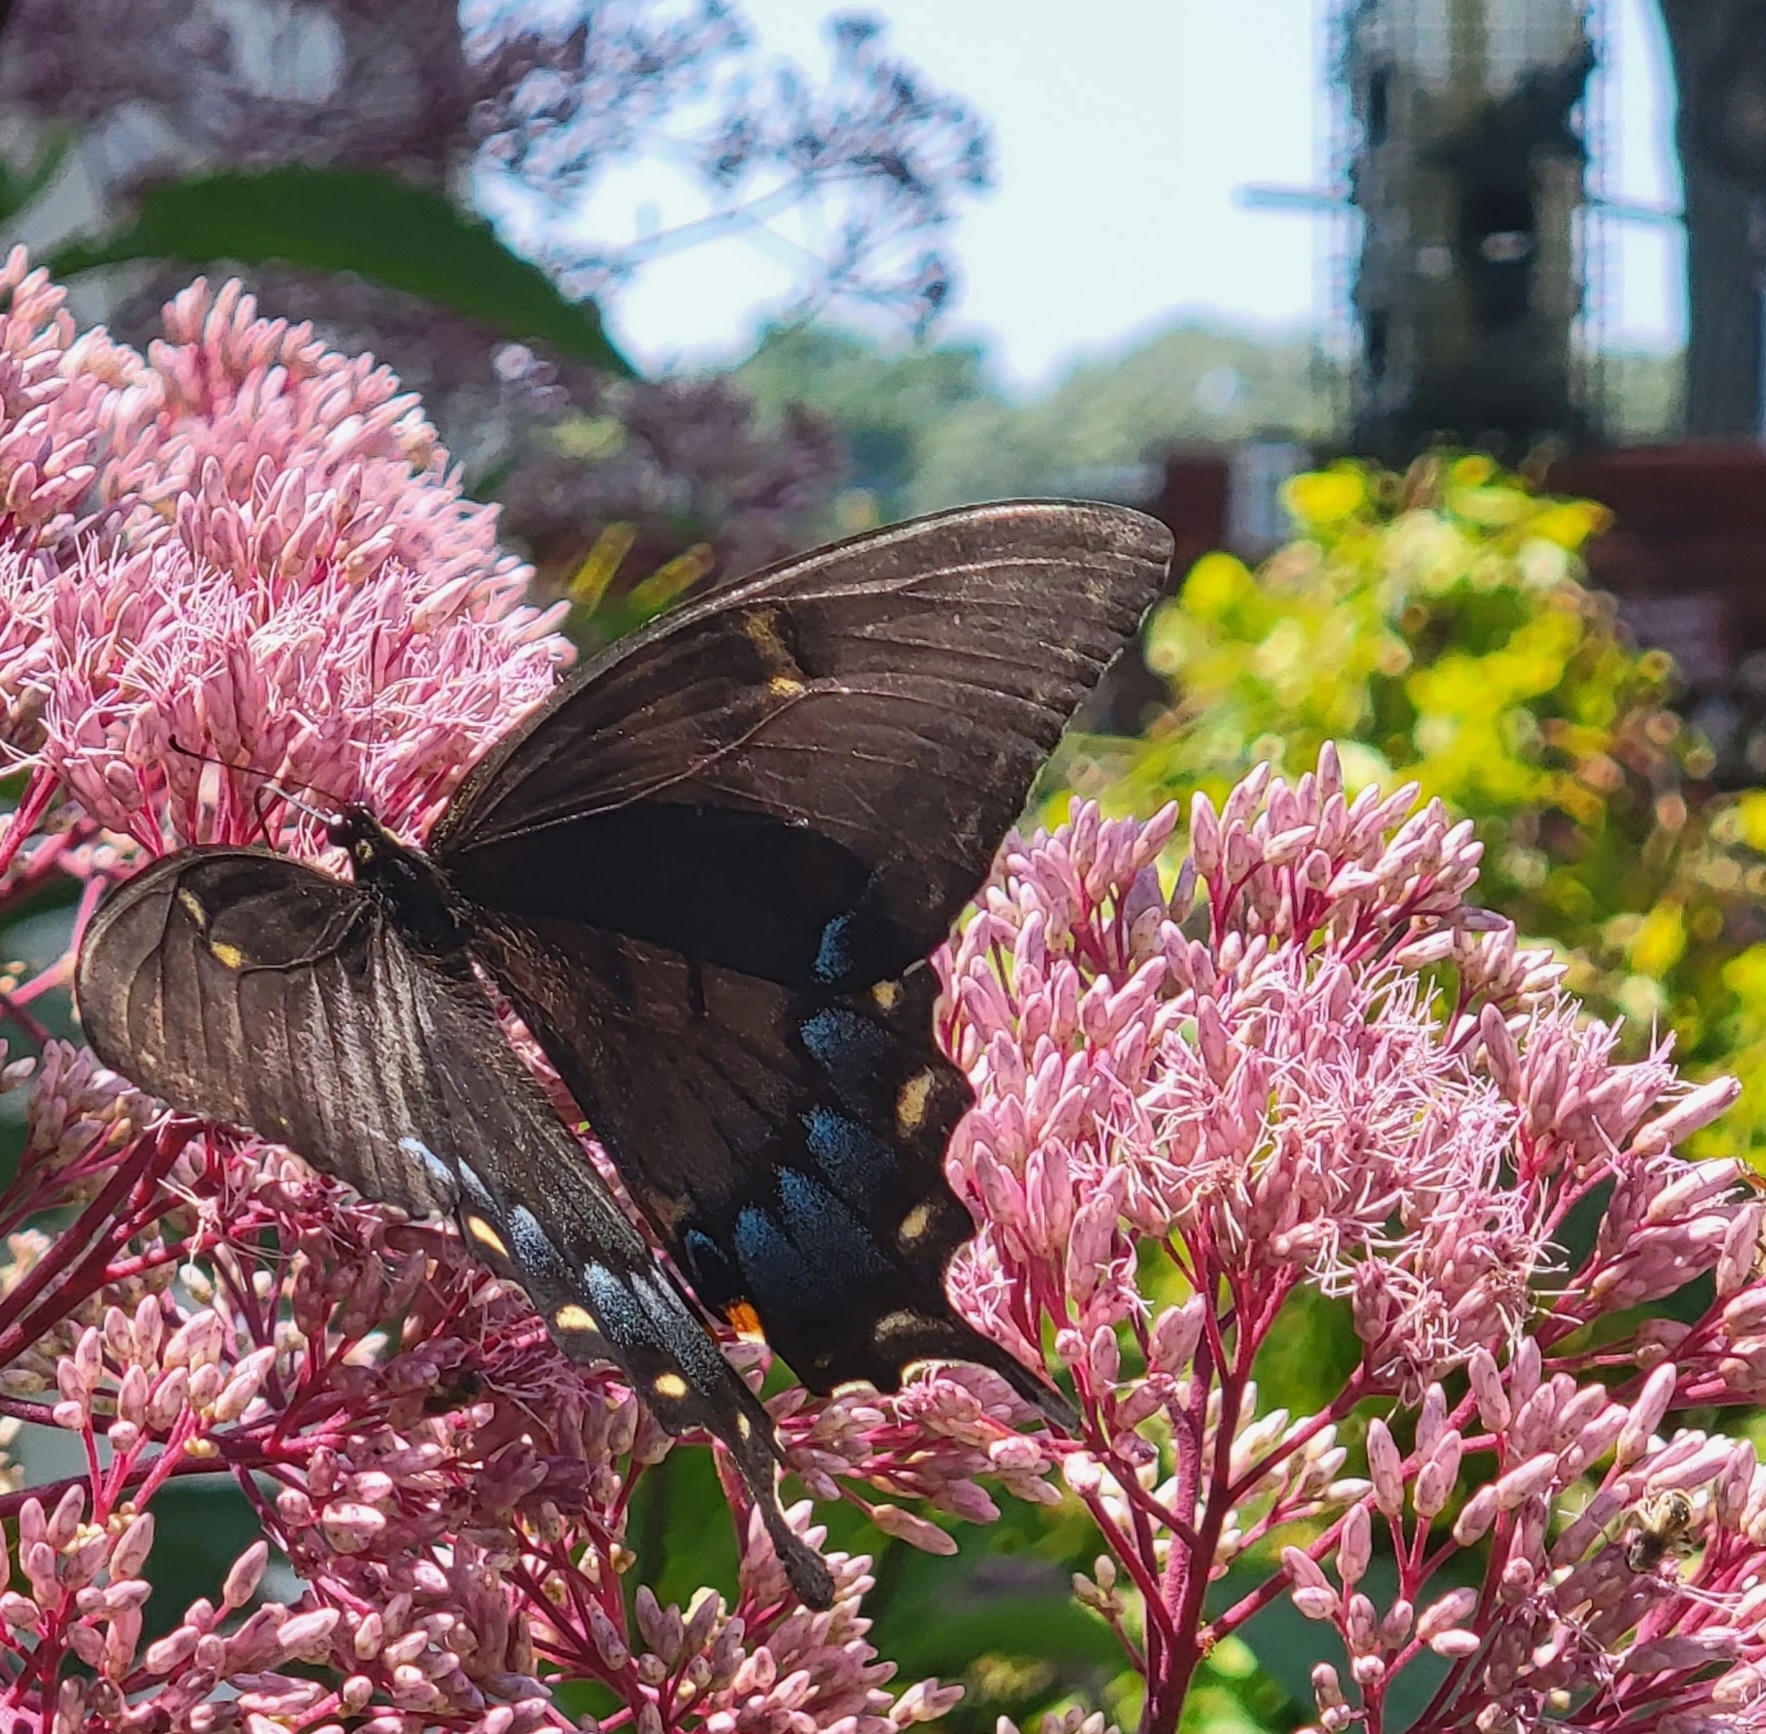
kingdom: Animalia
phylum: Arthropoda
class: Insecta
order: Lepidoptera
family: Papilionidae
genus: Papilio
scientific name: Papilio glaucus
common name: Tiger swallowtail
